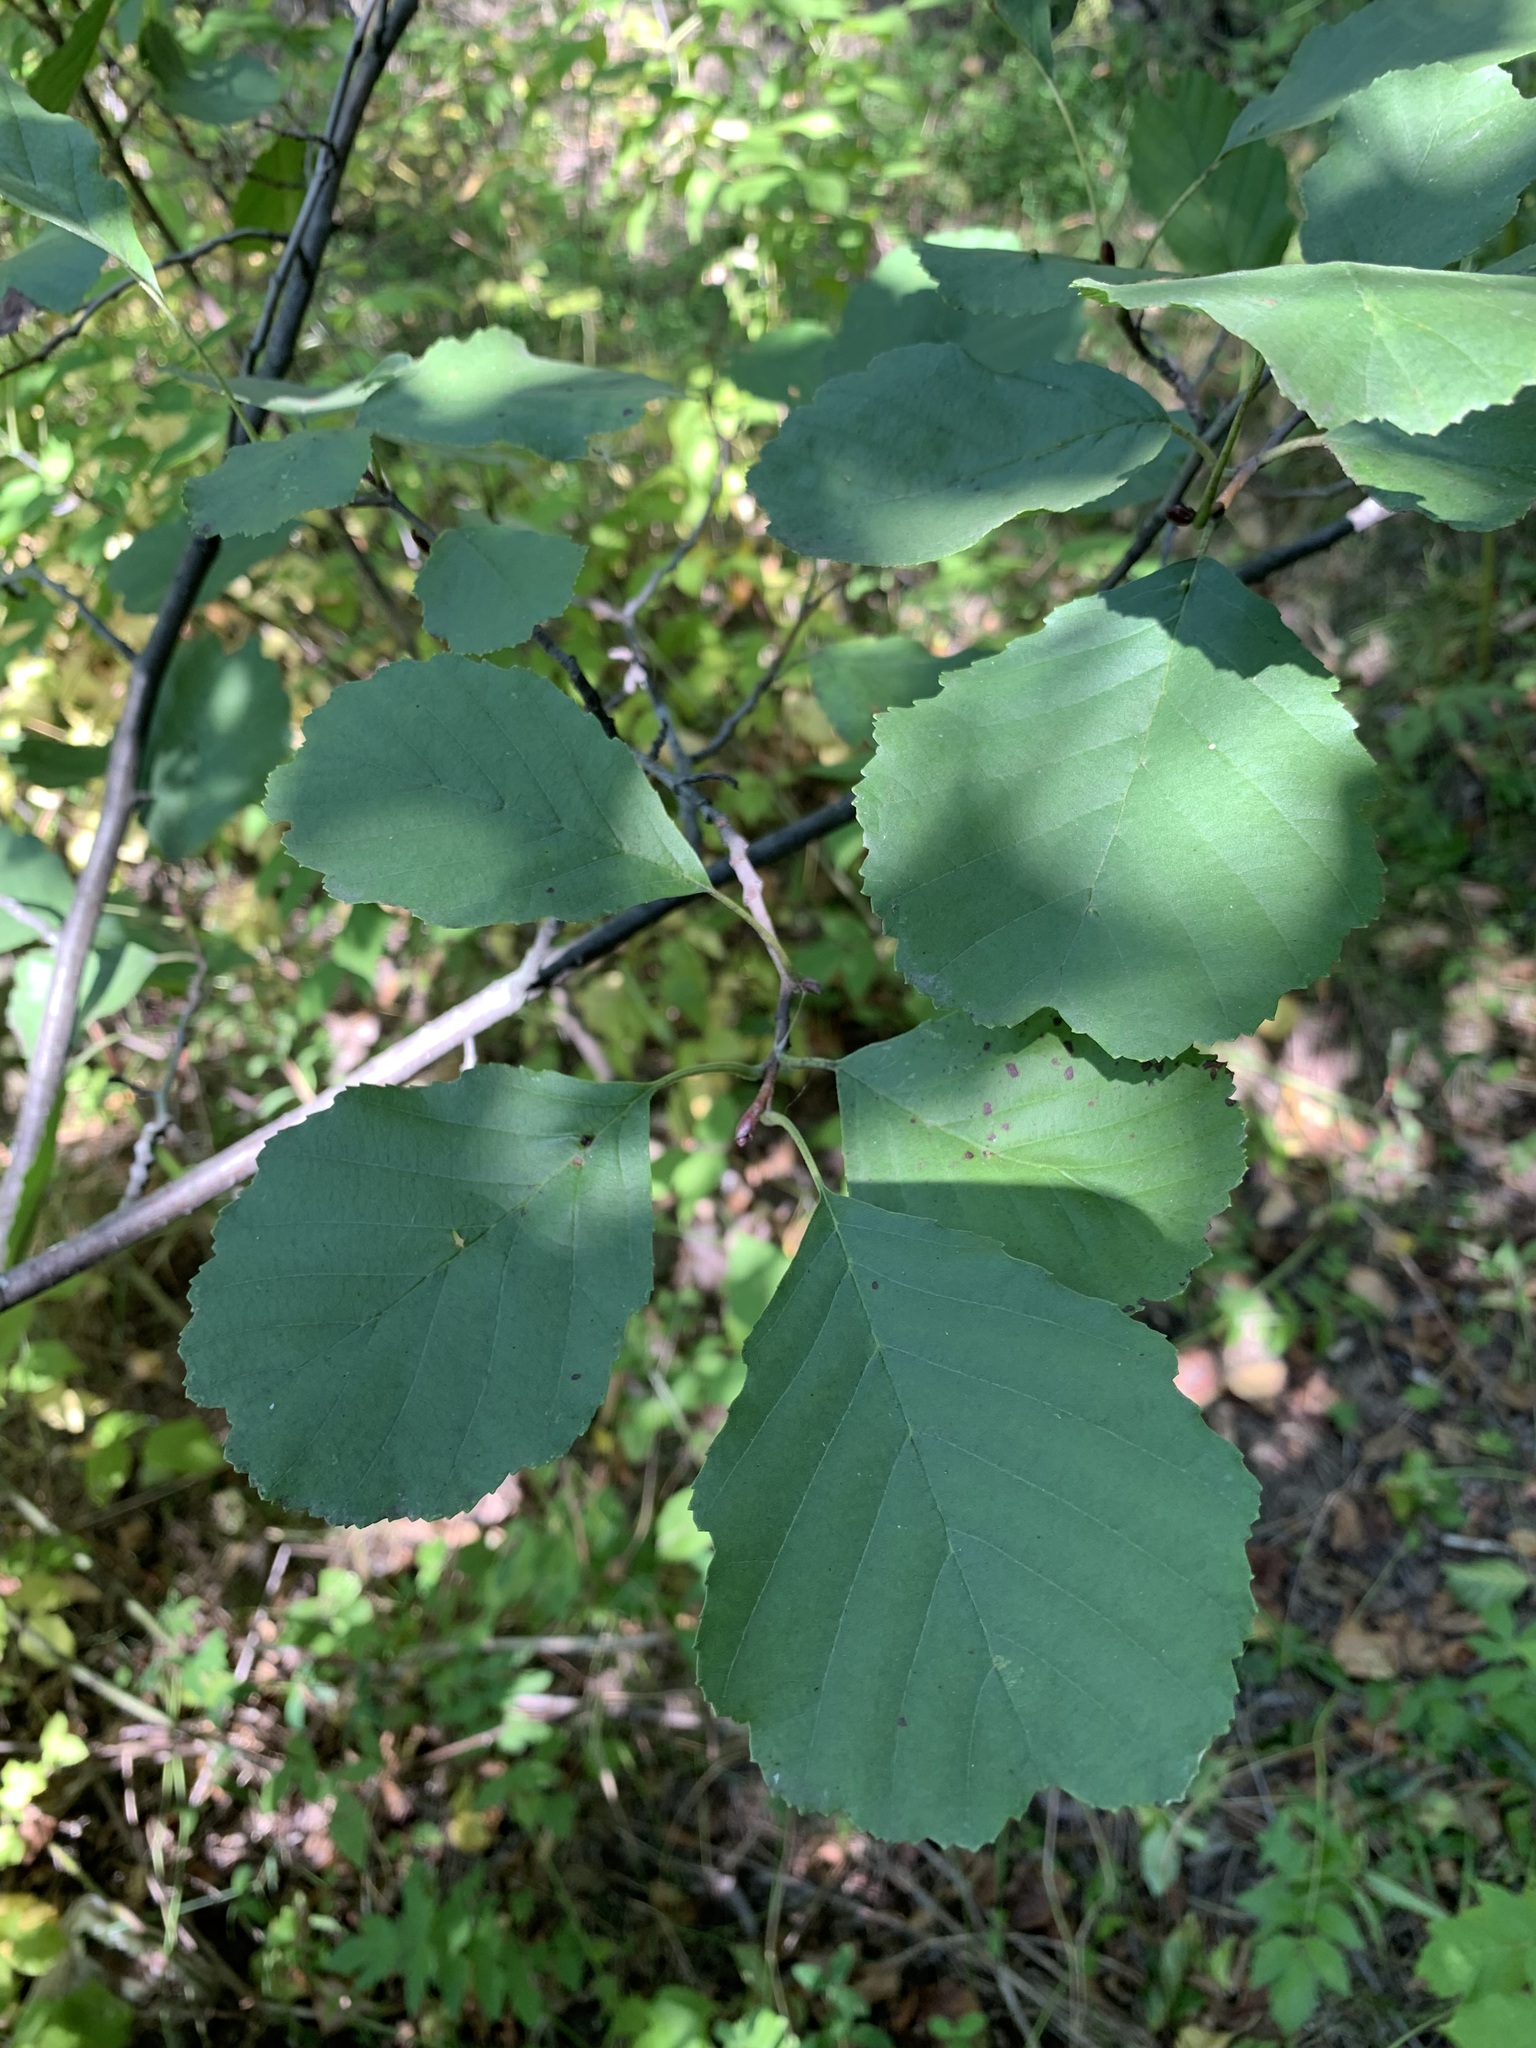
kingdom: Plantae
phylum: Tracheophyta
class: Magnoliopsida
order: Fagales
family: Betulaceae
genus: Alnus
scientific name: Alnus glutinosa
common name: Black alder
